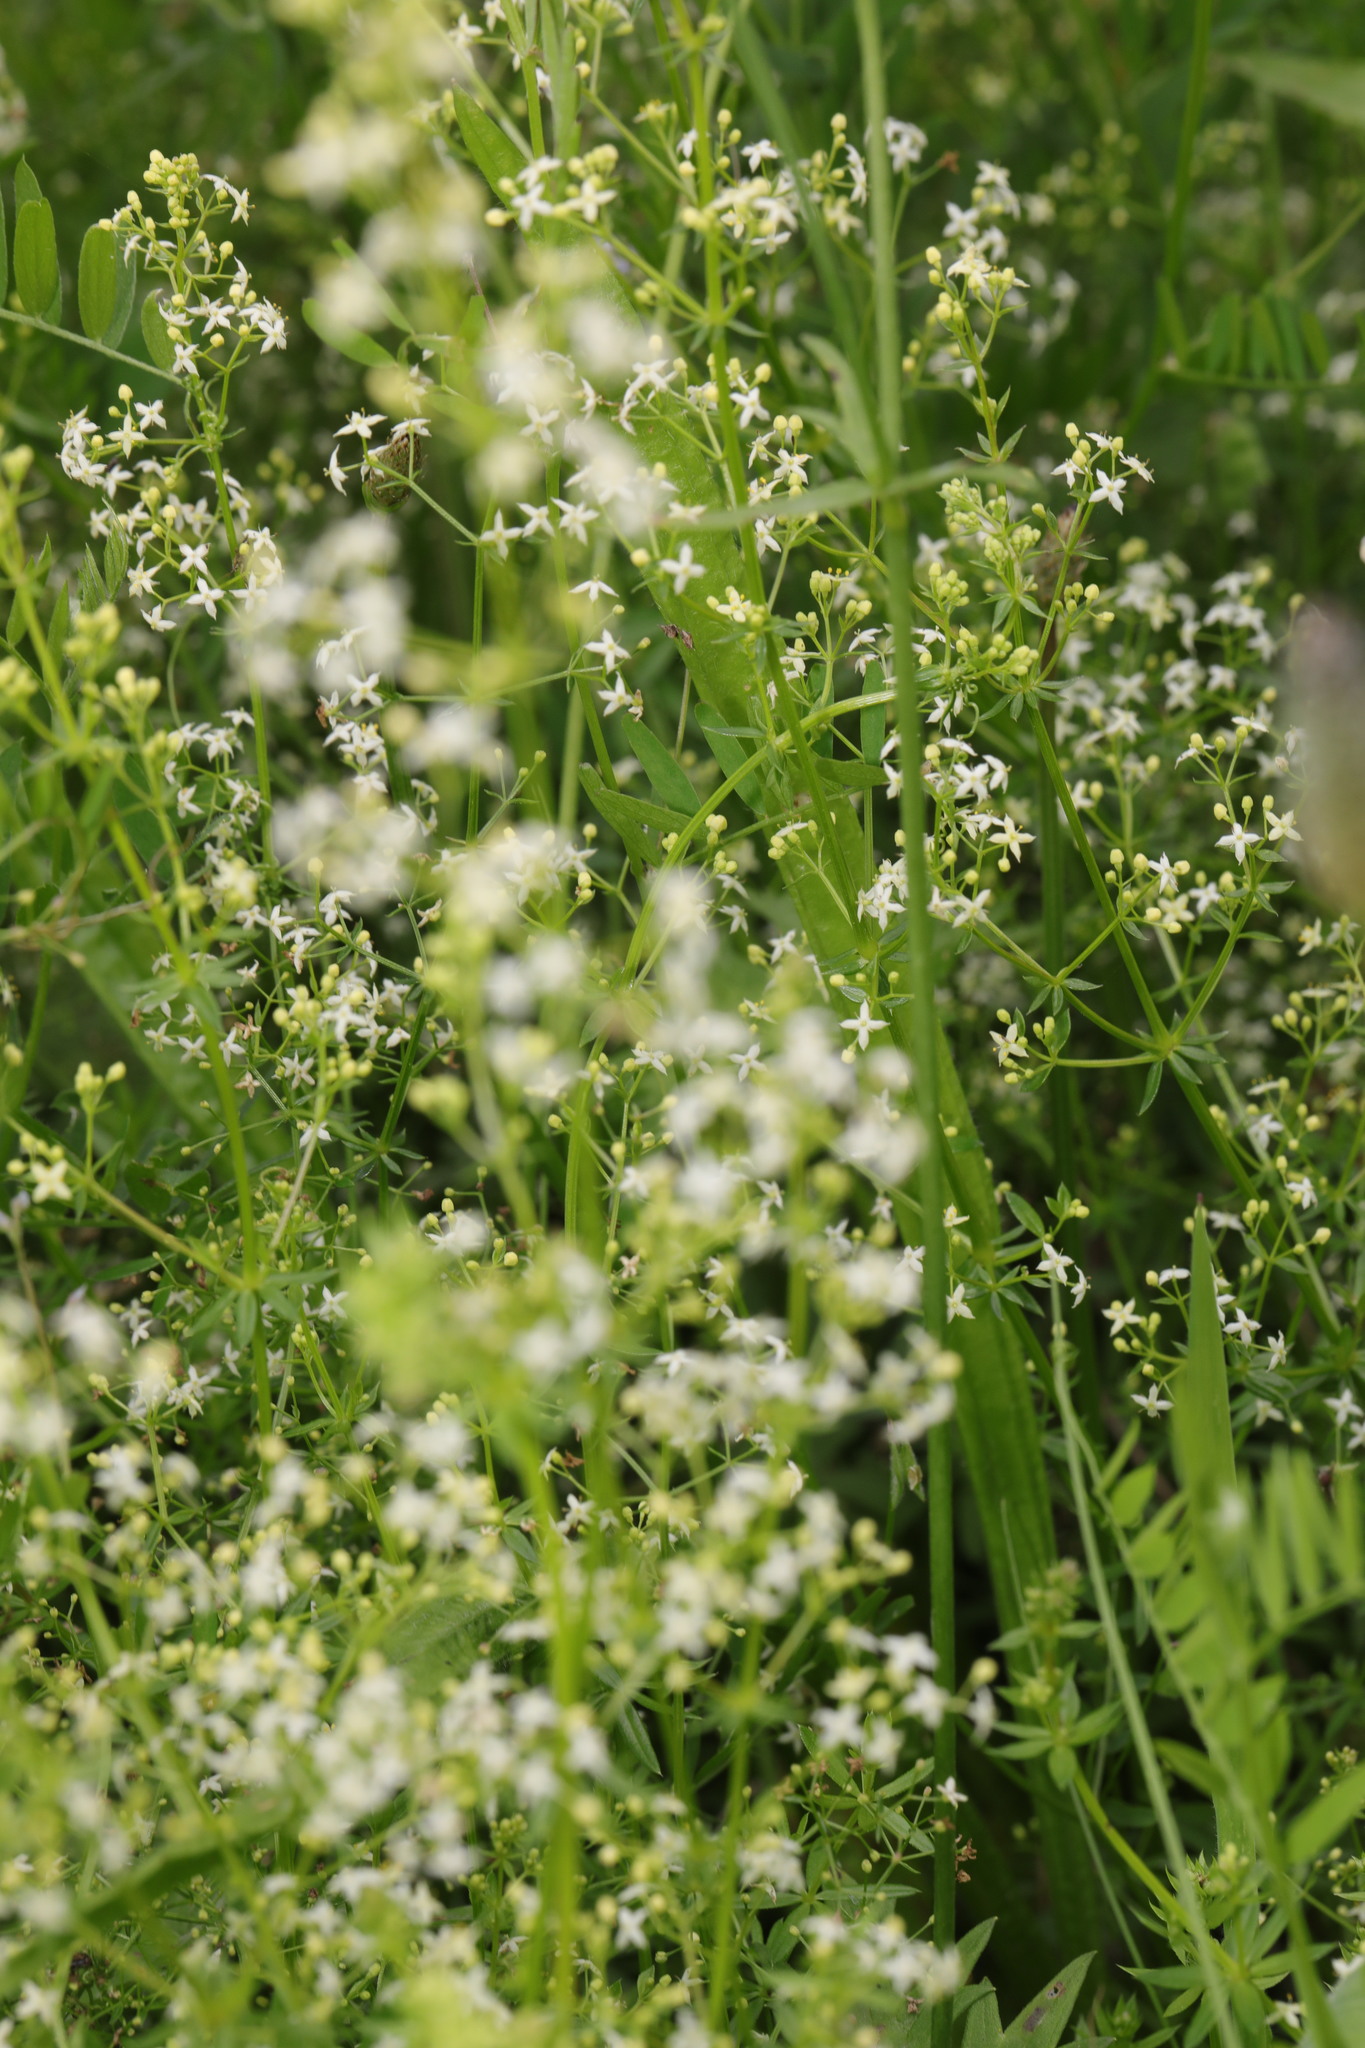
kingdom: Plantae
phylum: Tracheophyta
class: Magnoliopsida
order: Gentianales
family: Rubiaceae
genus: Galium
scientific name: Galium mollugo
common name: Hedge bedstraw
